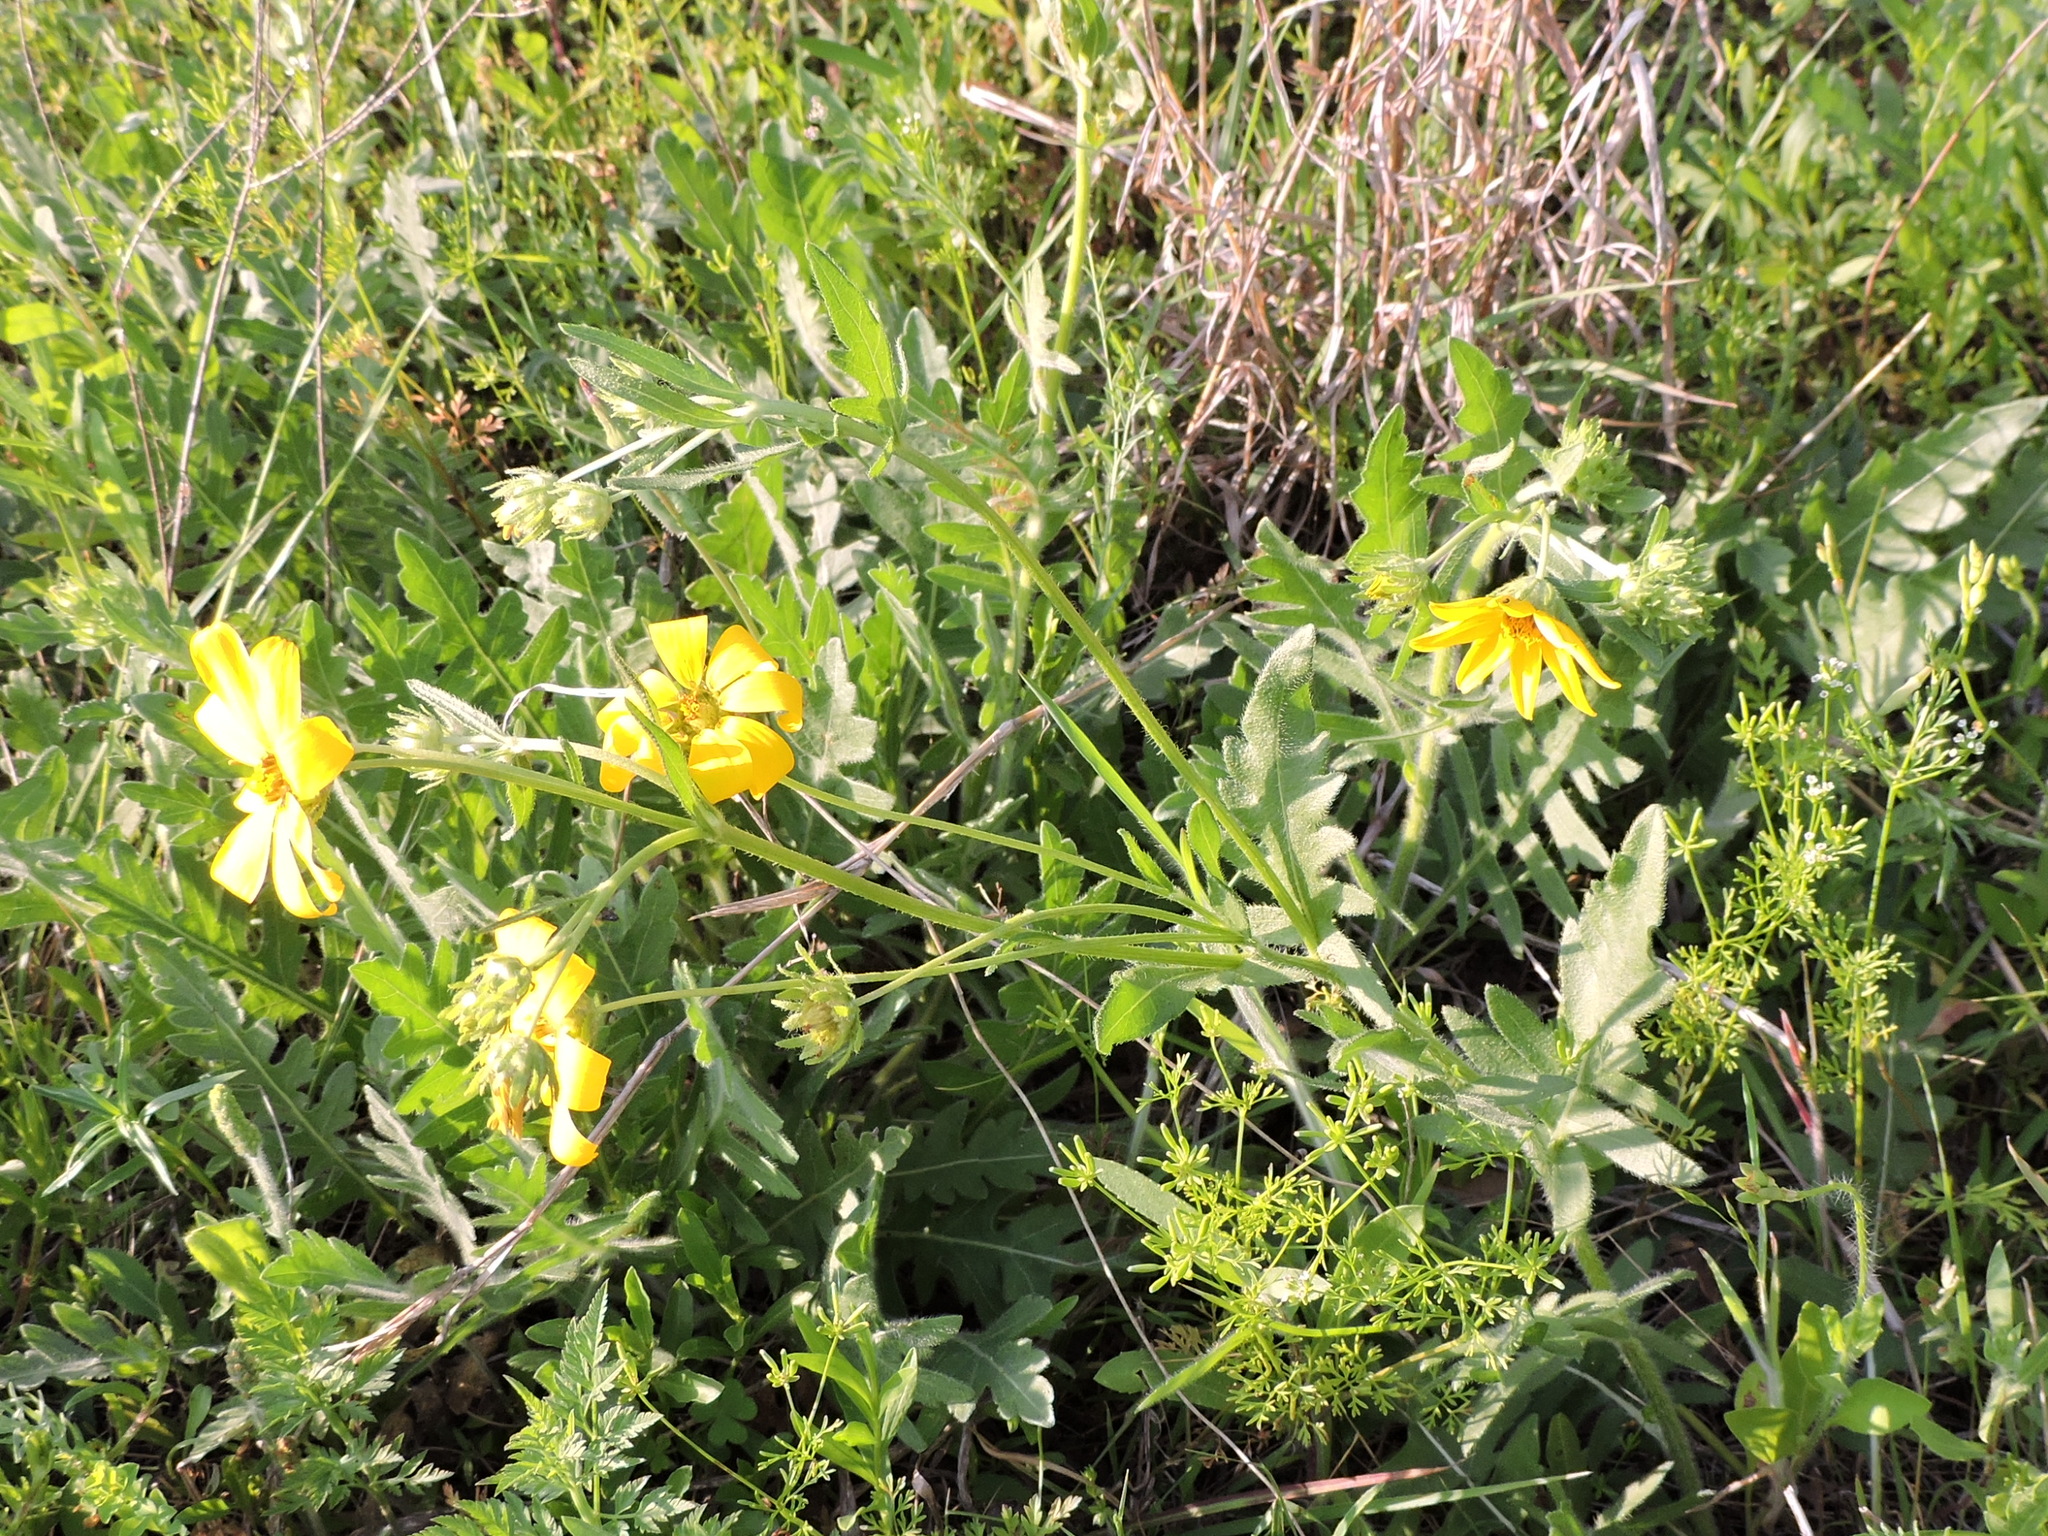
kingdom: Plantae
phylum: Tracheophyta
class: Magnoliopsida
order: Asterales
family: Asteraceae
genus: Engelmannia
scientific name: Engelmannia peristenia
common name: Engelmann's daisy
